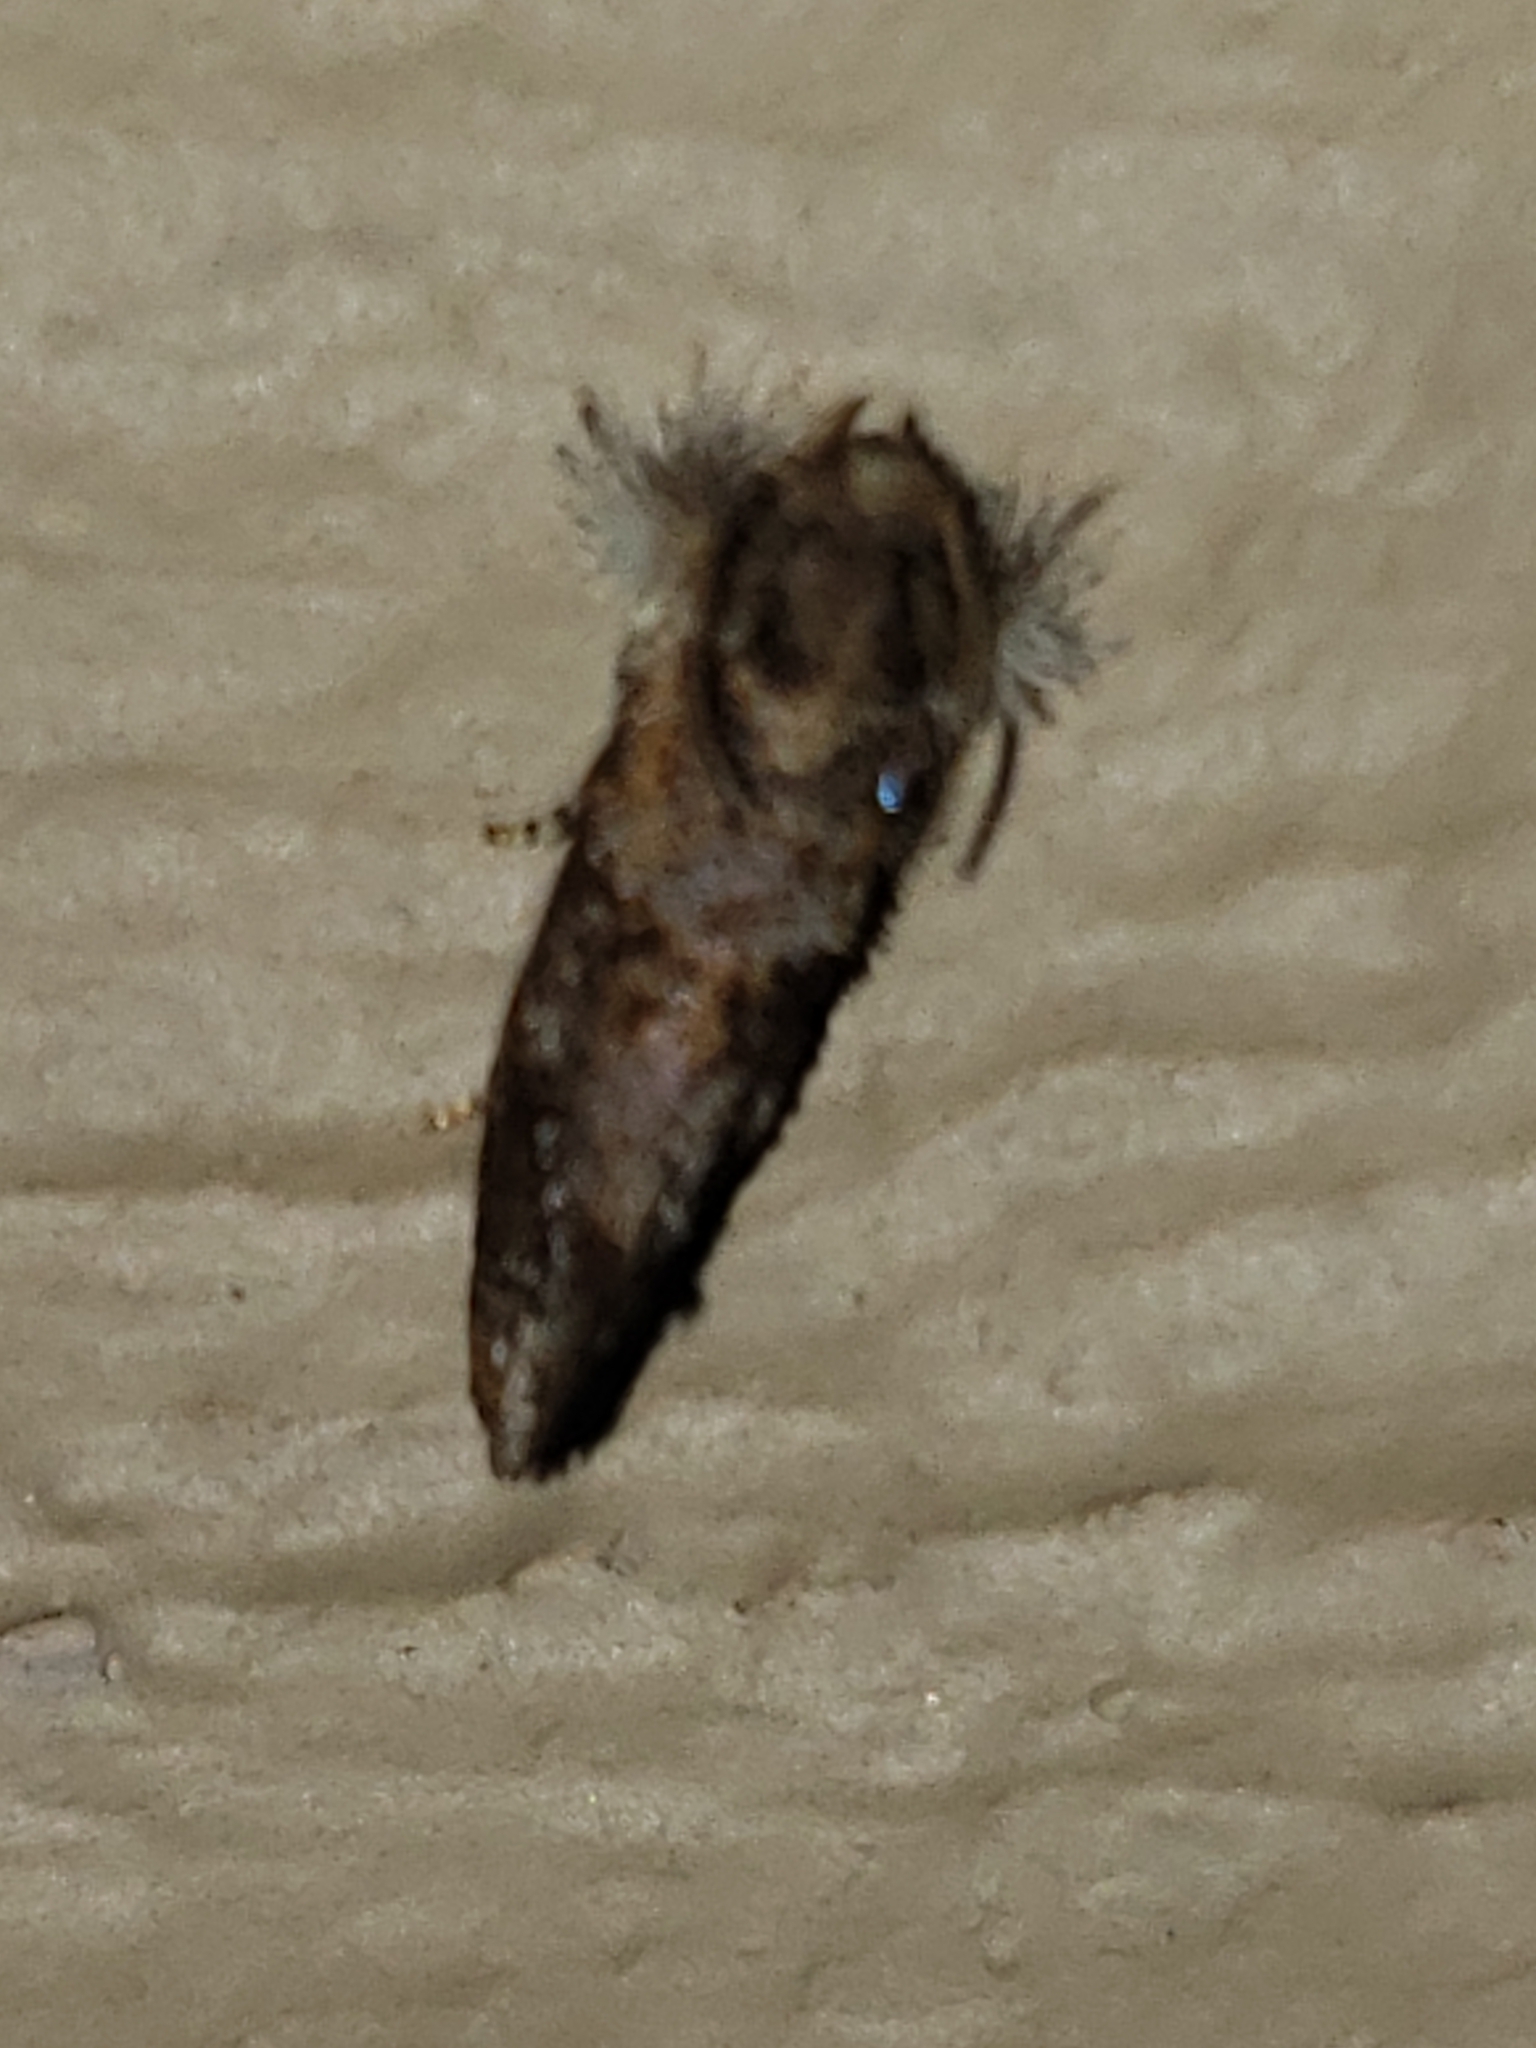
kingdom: Animalia
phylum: Arthropoda
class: Insecta
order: Lepidoptera
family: Tineidae
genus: Acrolophus
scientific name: Acrolophus panamae
